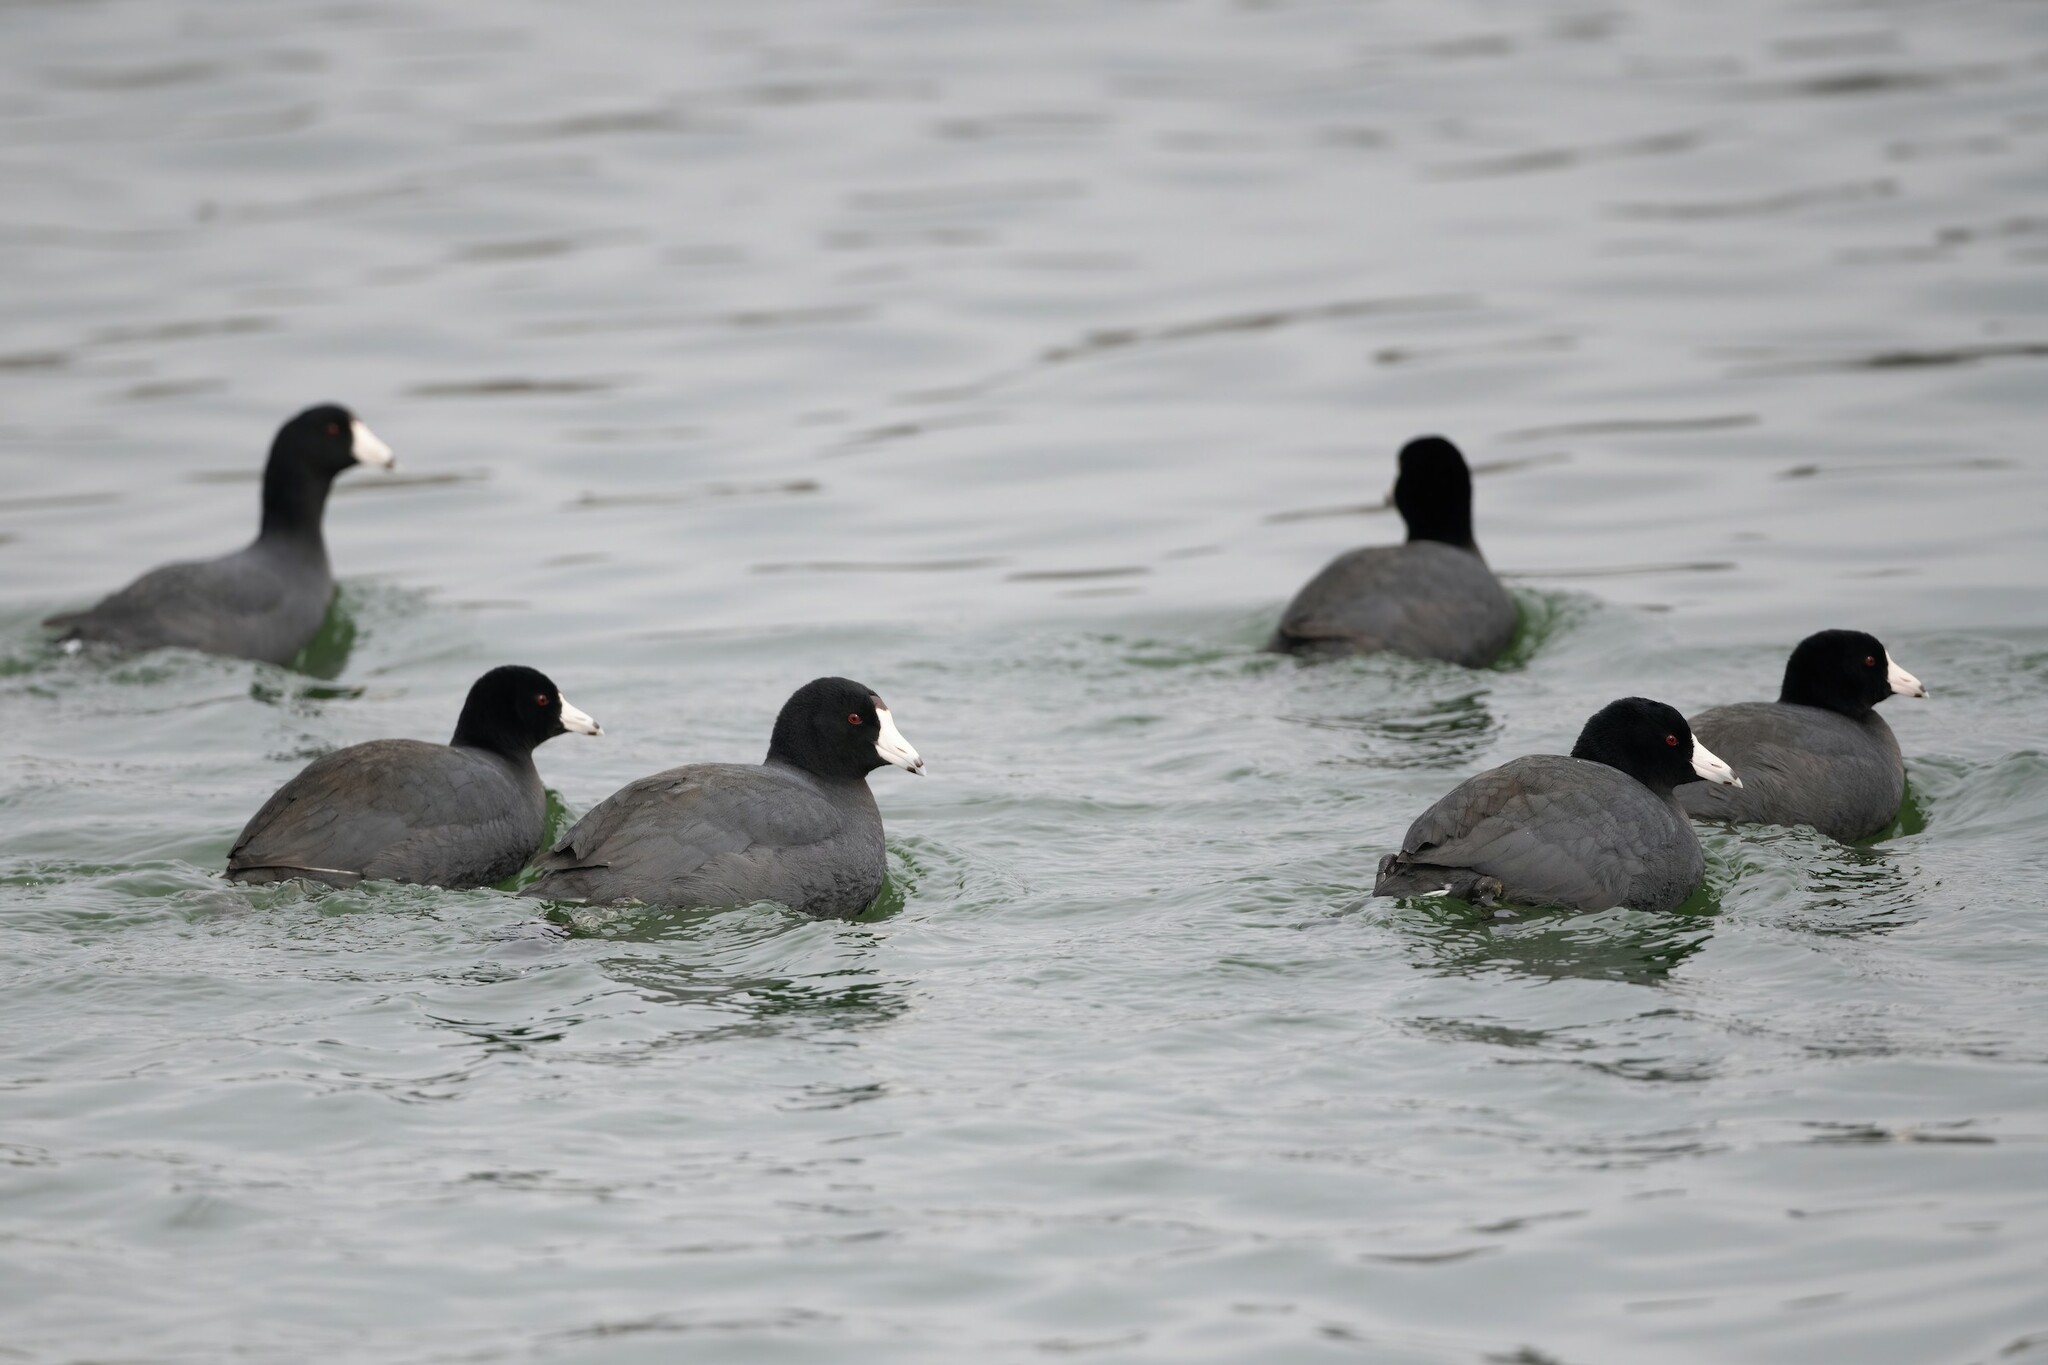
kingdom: Animalia
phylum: Chordata
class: Aves
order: Gruiformes
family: Rallidae
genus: Fulica
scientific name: Fulica americana
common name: American coot
